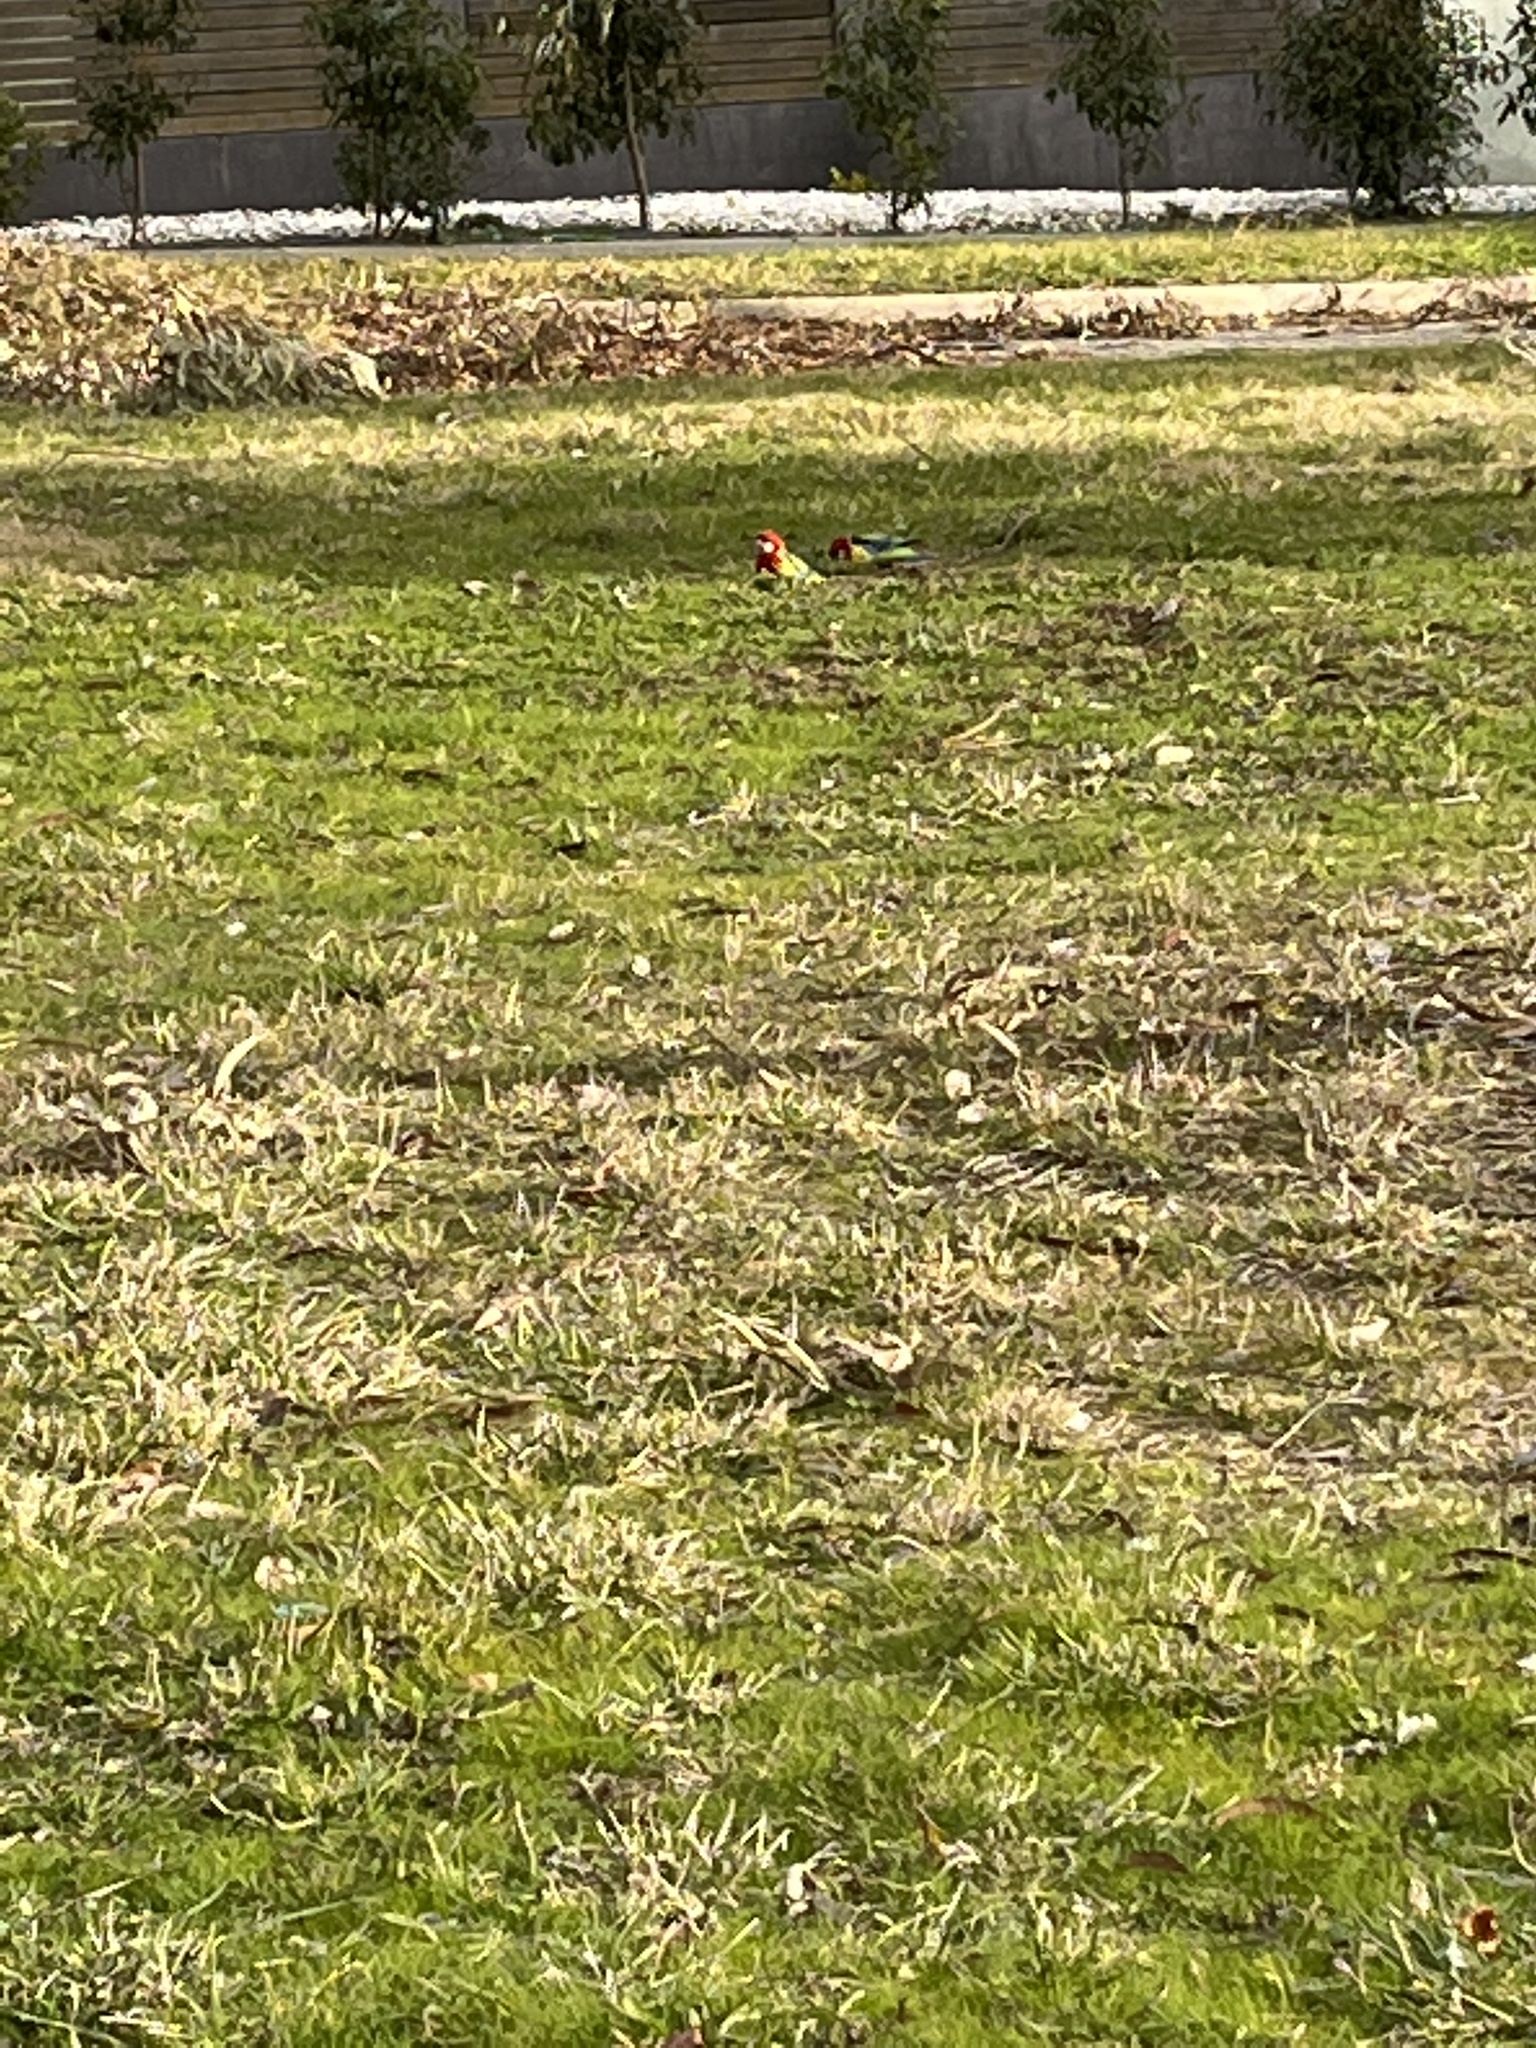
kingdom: Animalia
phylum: Chordata
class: Aves
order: Psittaciformes
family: Psittacidae
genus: Platycercus
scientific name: Platycercus eximius
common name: Eastern rosella
